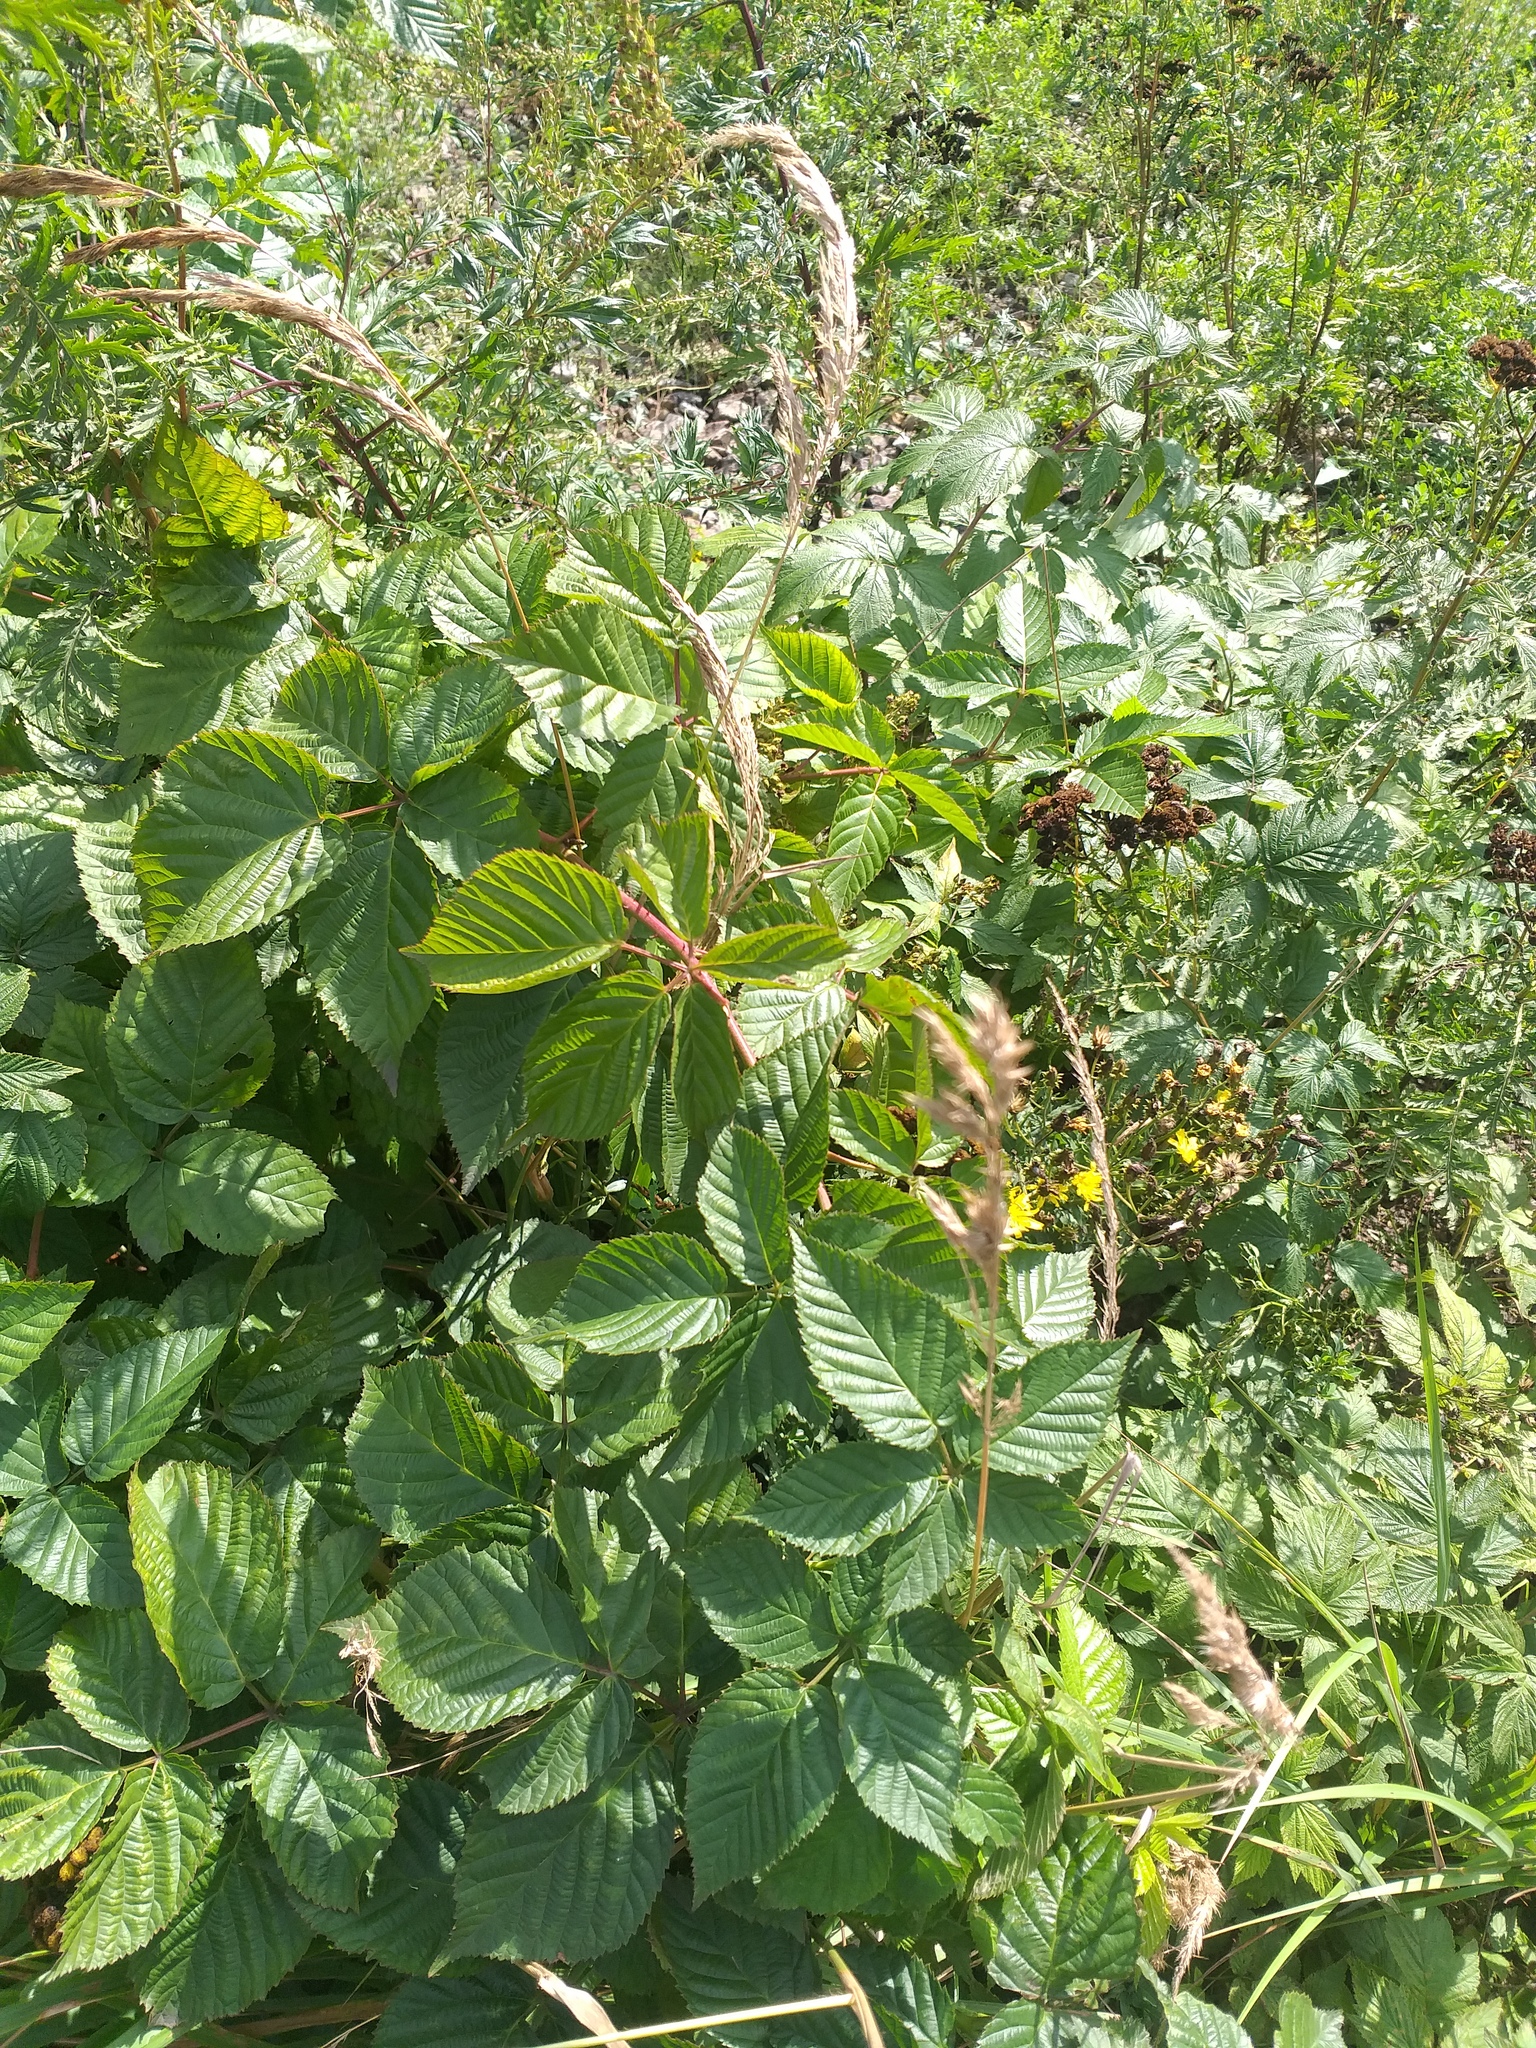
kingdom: Plantae
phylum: Tracheophyta
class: Magnoliopsida
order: Rosales
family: Rosaceae
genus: Rubus
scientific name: Rubus polonicus
